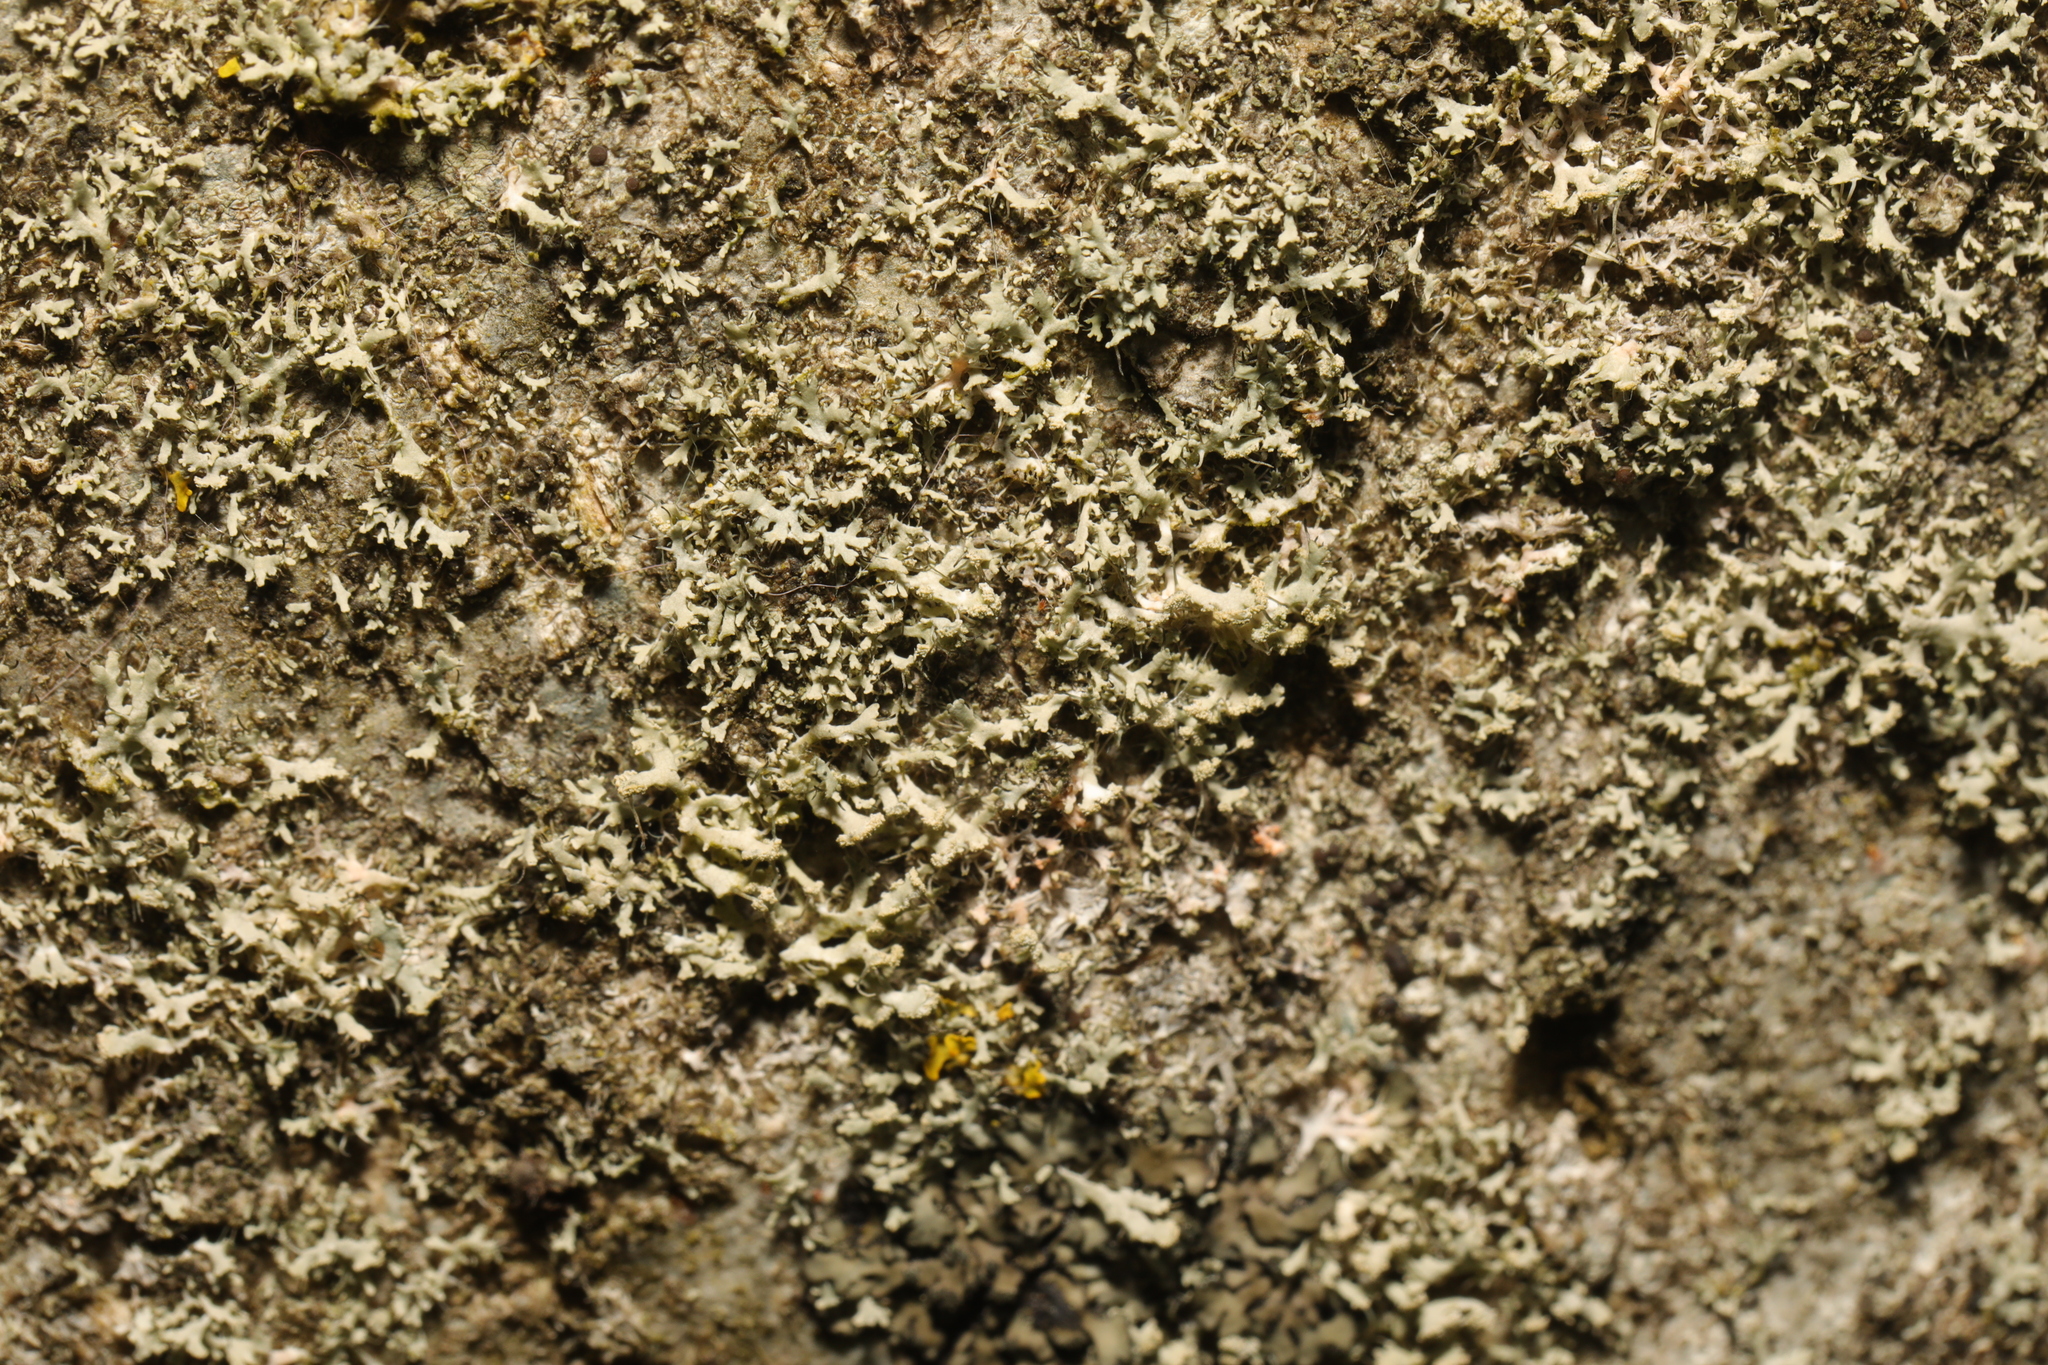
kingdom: Fungi
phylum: Ascomycota
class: Lecanoromycetes
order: Caliciales
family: Physciaceae
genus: Physcia
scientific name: Physcia tenella
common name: Fringed rosette lichen
